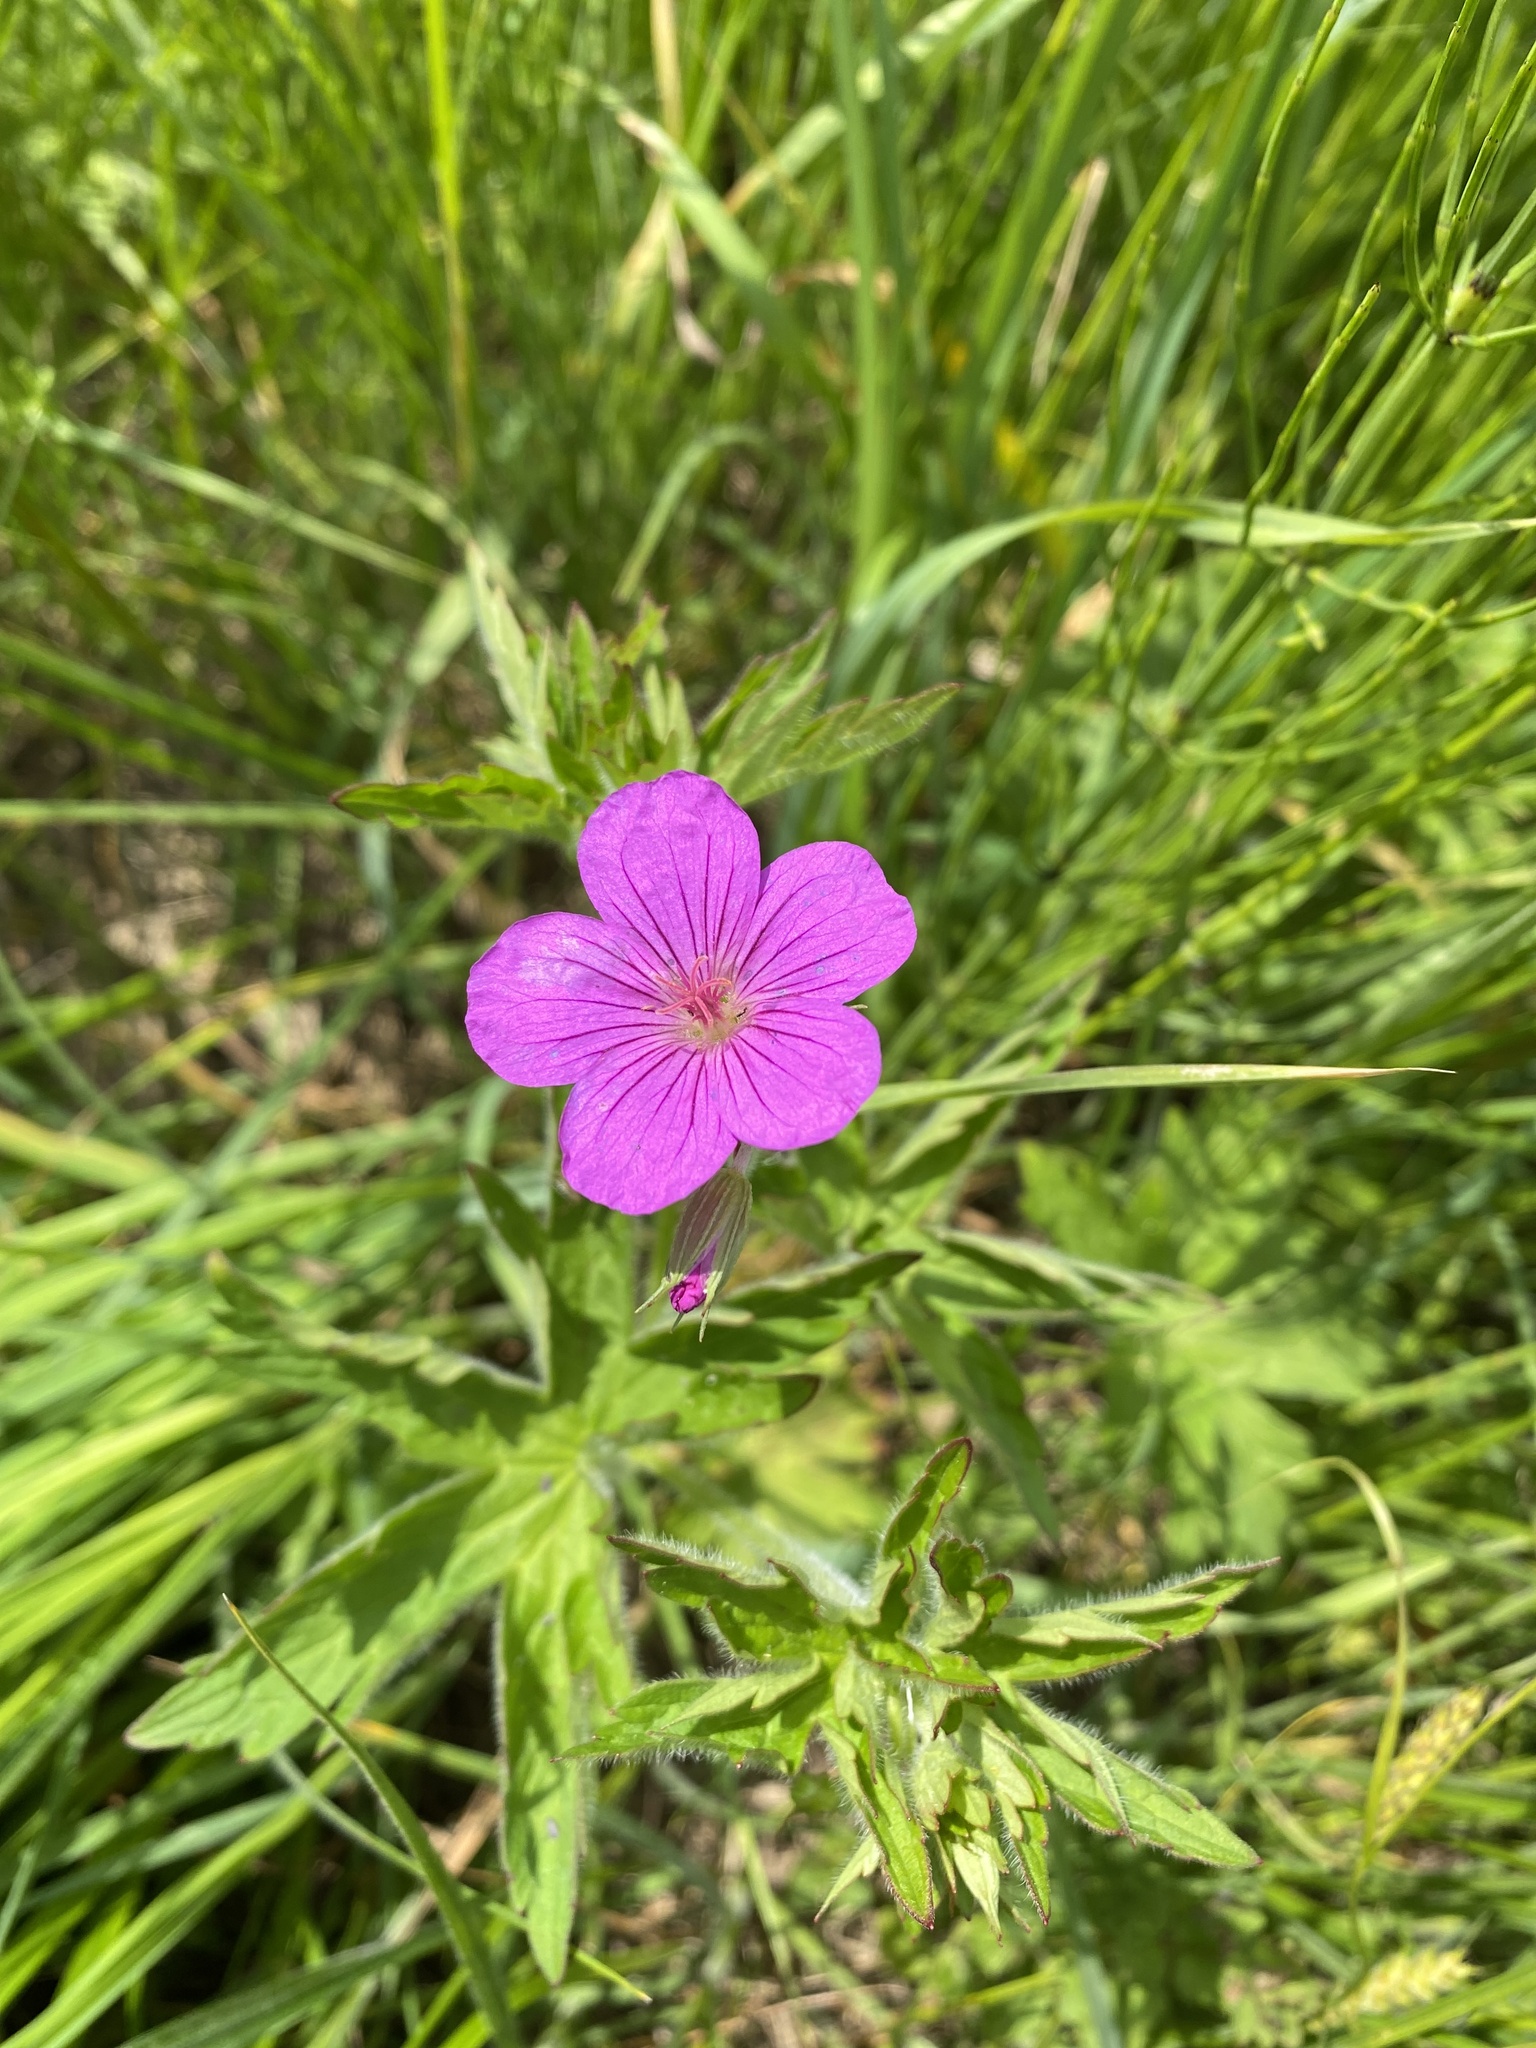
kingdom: Plantae
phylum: Tracheophyta
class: Magnoliopsida
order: Geraniales
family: Geraniaceae
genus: Geranium
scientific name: Geranium palustre
